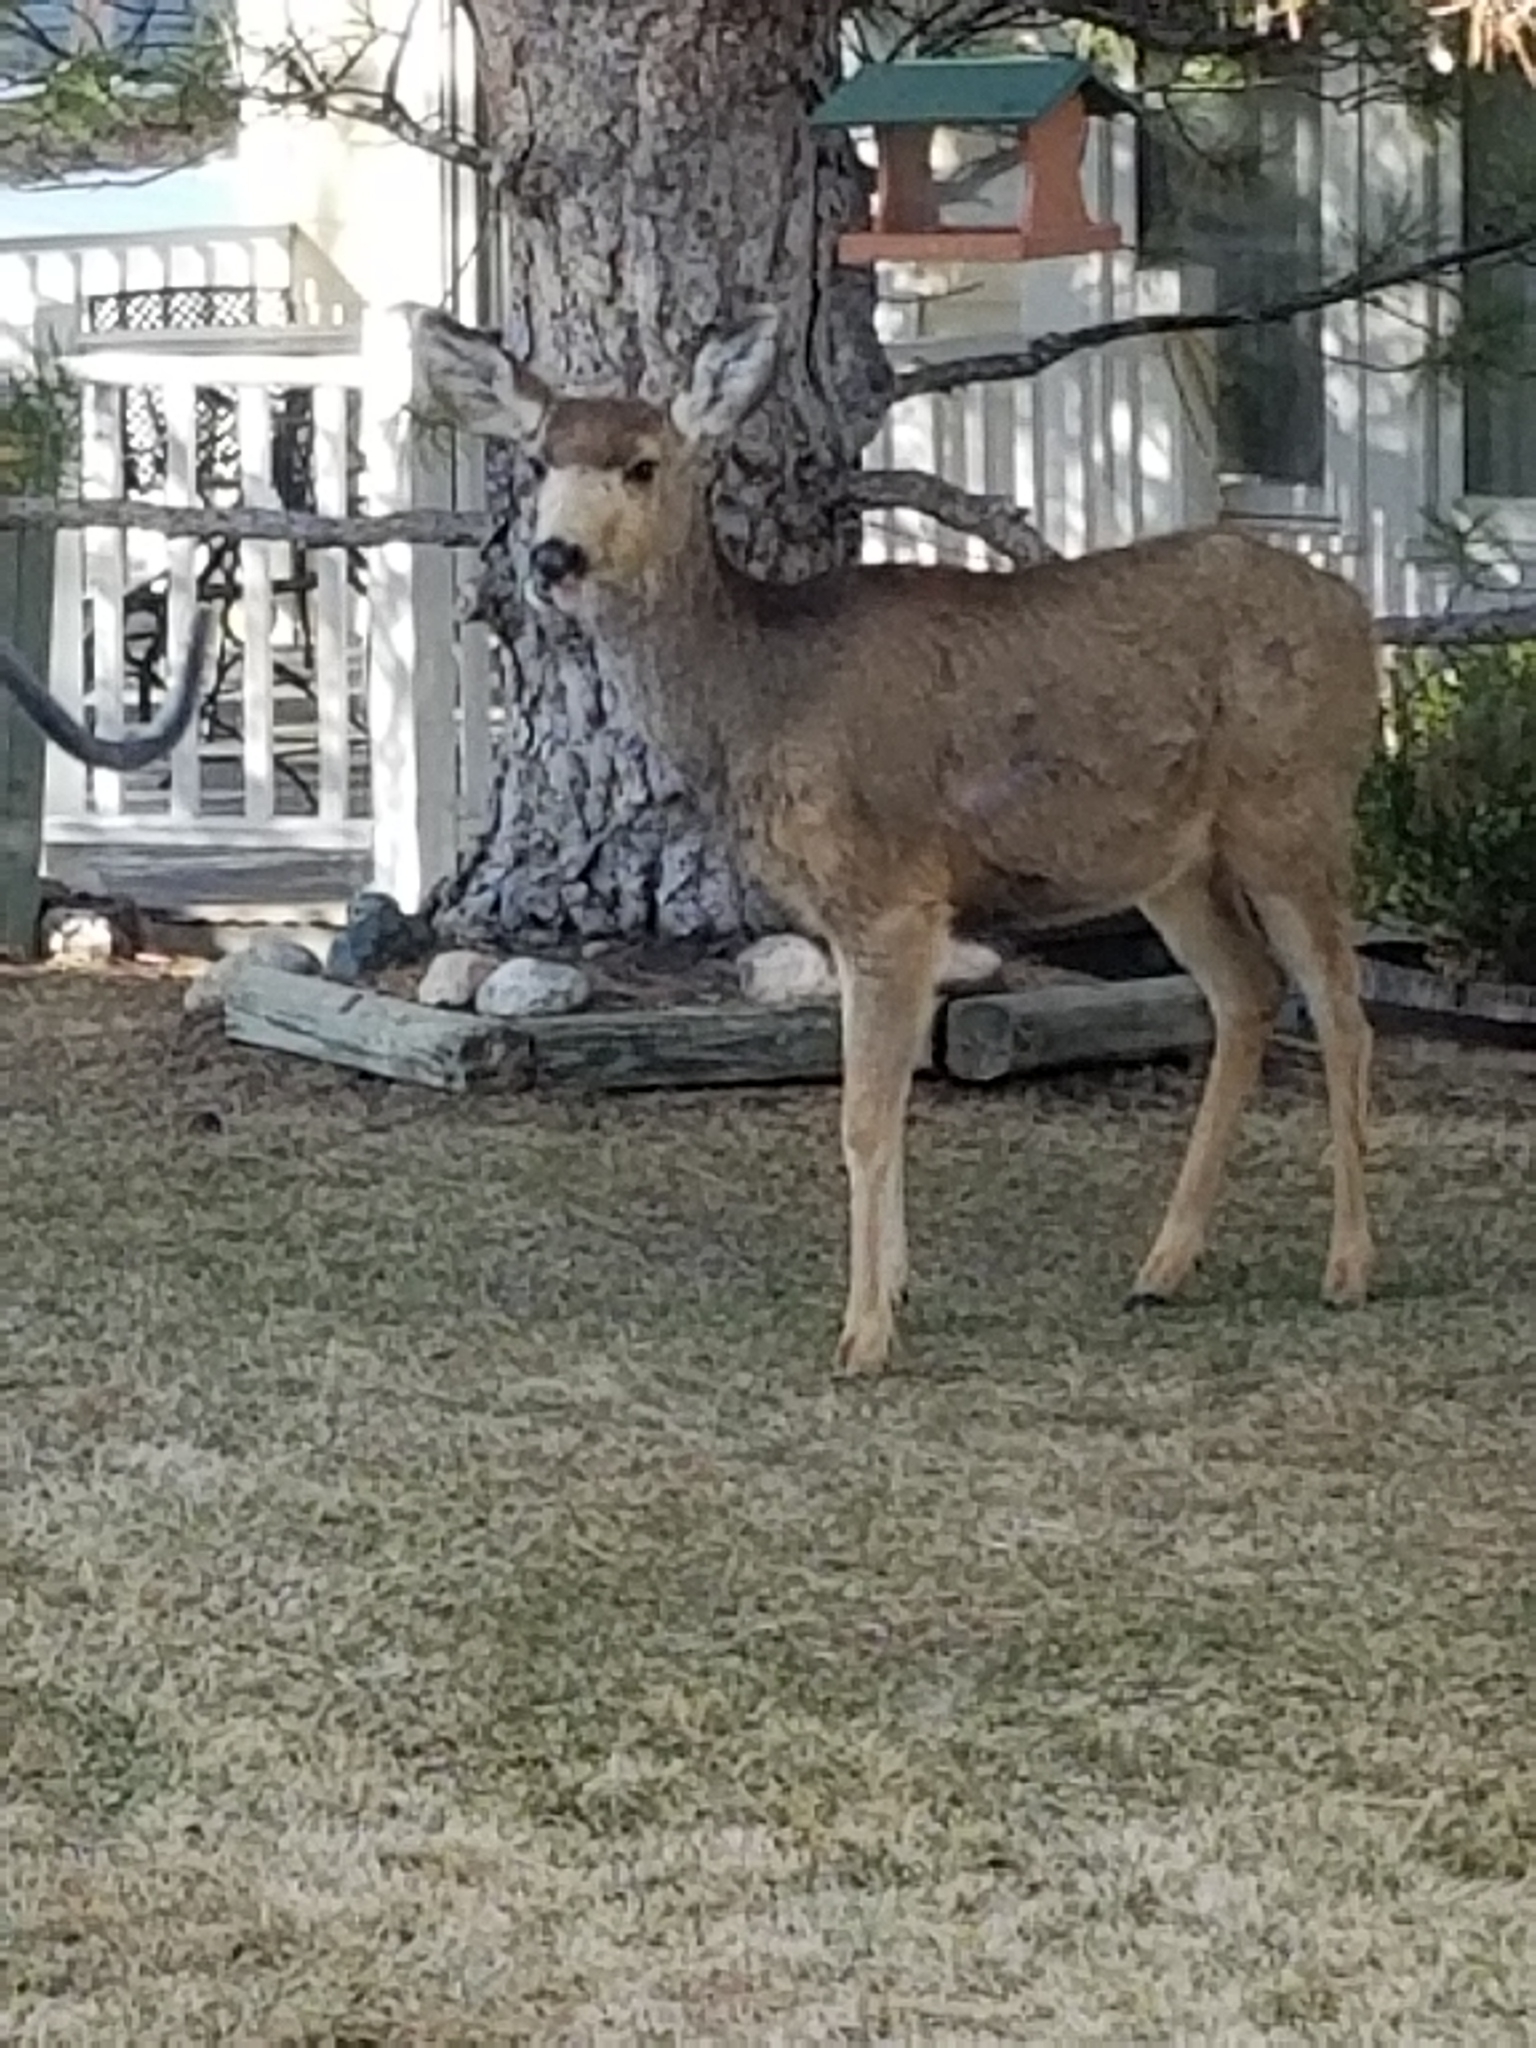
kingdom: Animalia
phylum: Chordata
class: Mammalia
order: Artiodactyla
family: Cervidae
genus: Odocoileus
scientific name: Odocoileus hemionus
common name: Mule deer
